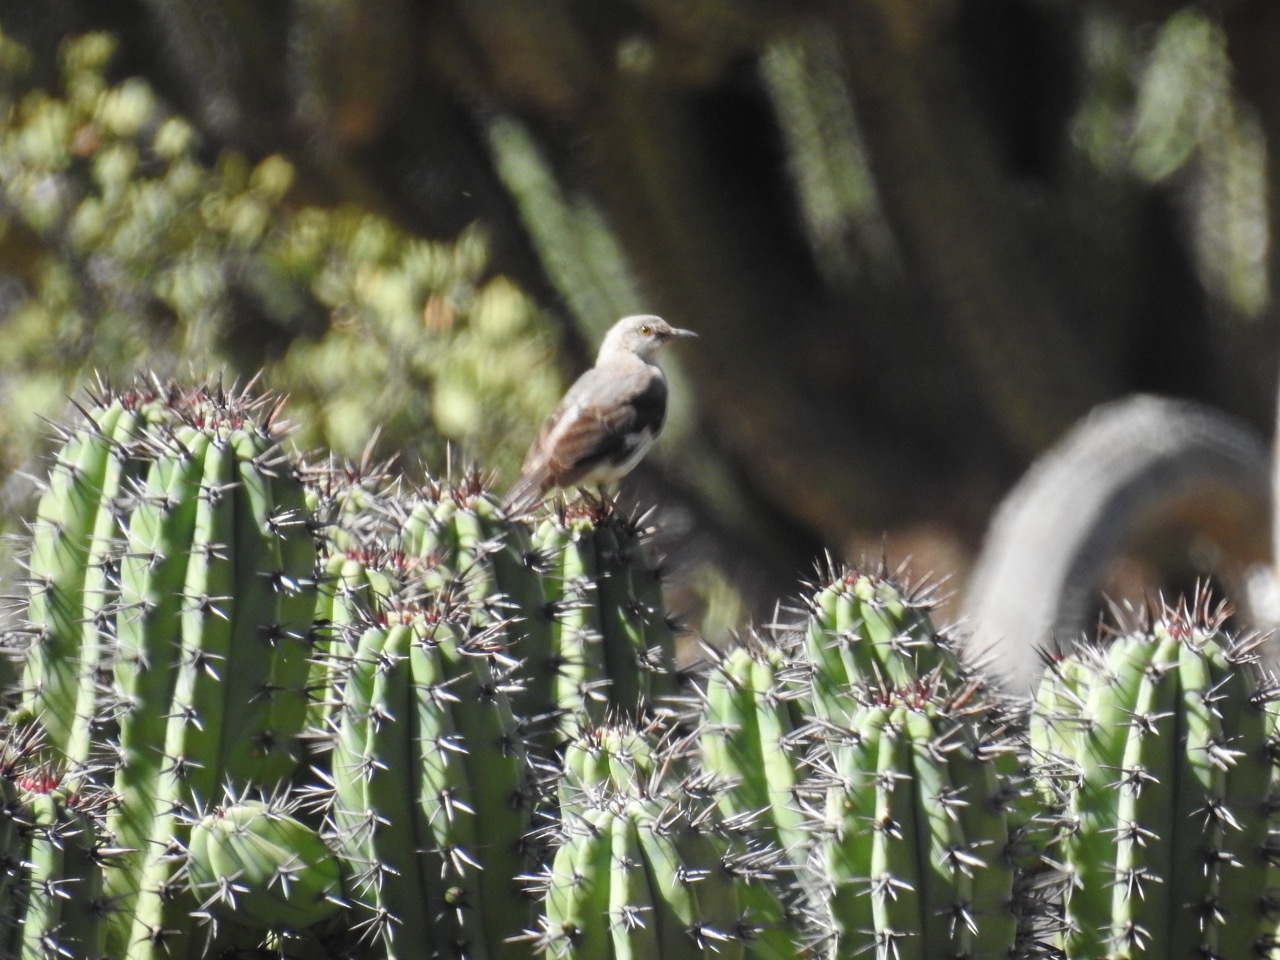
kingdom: Animalia
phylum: Chordata
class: Aves
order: Passeriformes
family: Mimidae
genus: Mimus
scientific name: Mimus polyglottos
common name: Northern mockingbird
